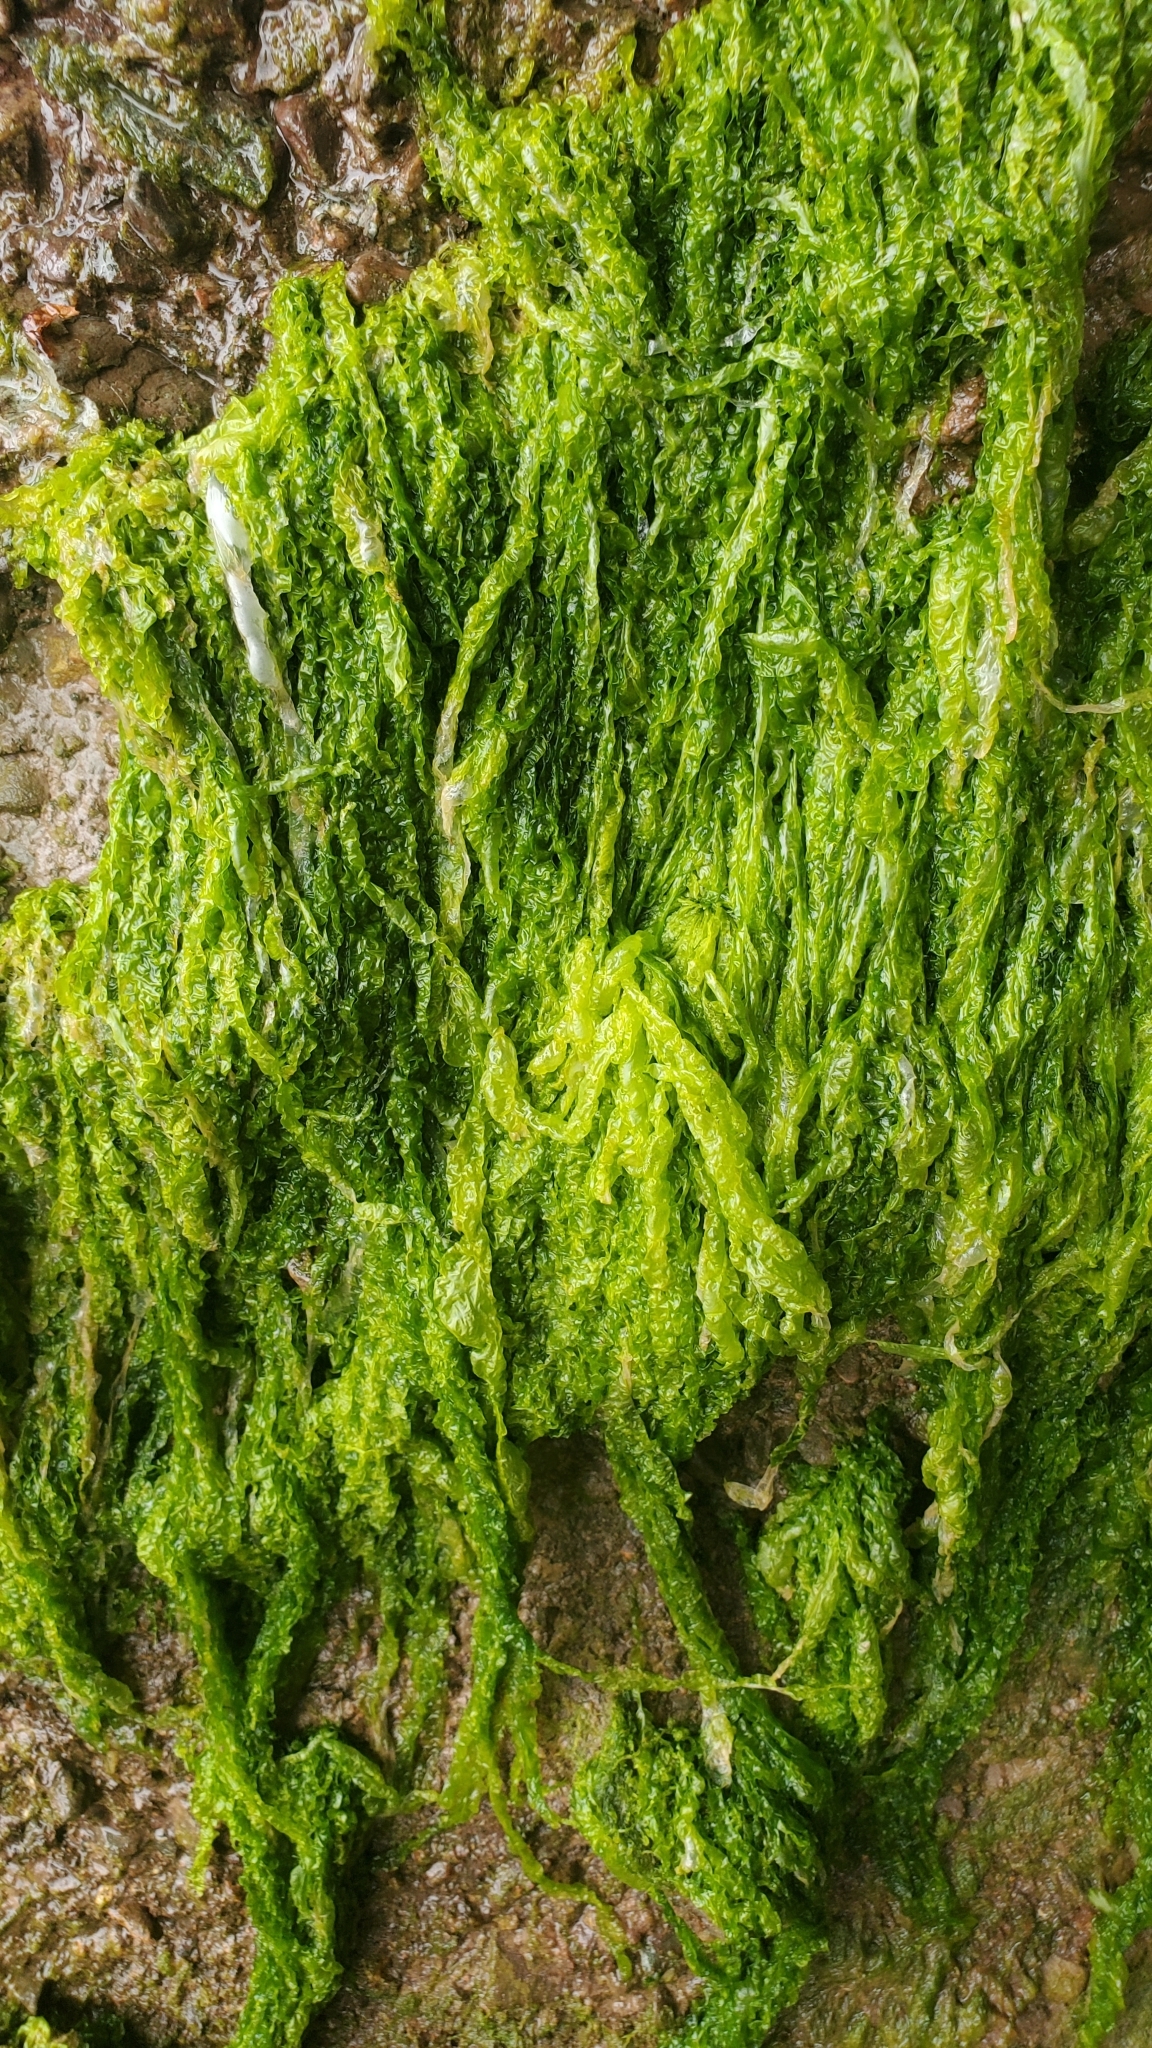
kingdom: Plantae
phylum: Chlorophyta
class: Ulvophyceae
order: Ulvales
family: Ulvaceae
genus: Ulva
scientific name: Ulva intestinalis
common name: Gut weed
